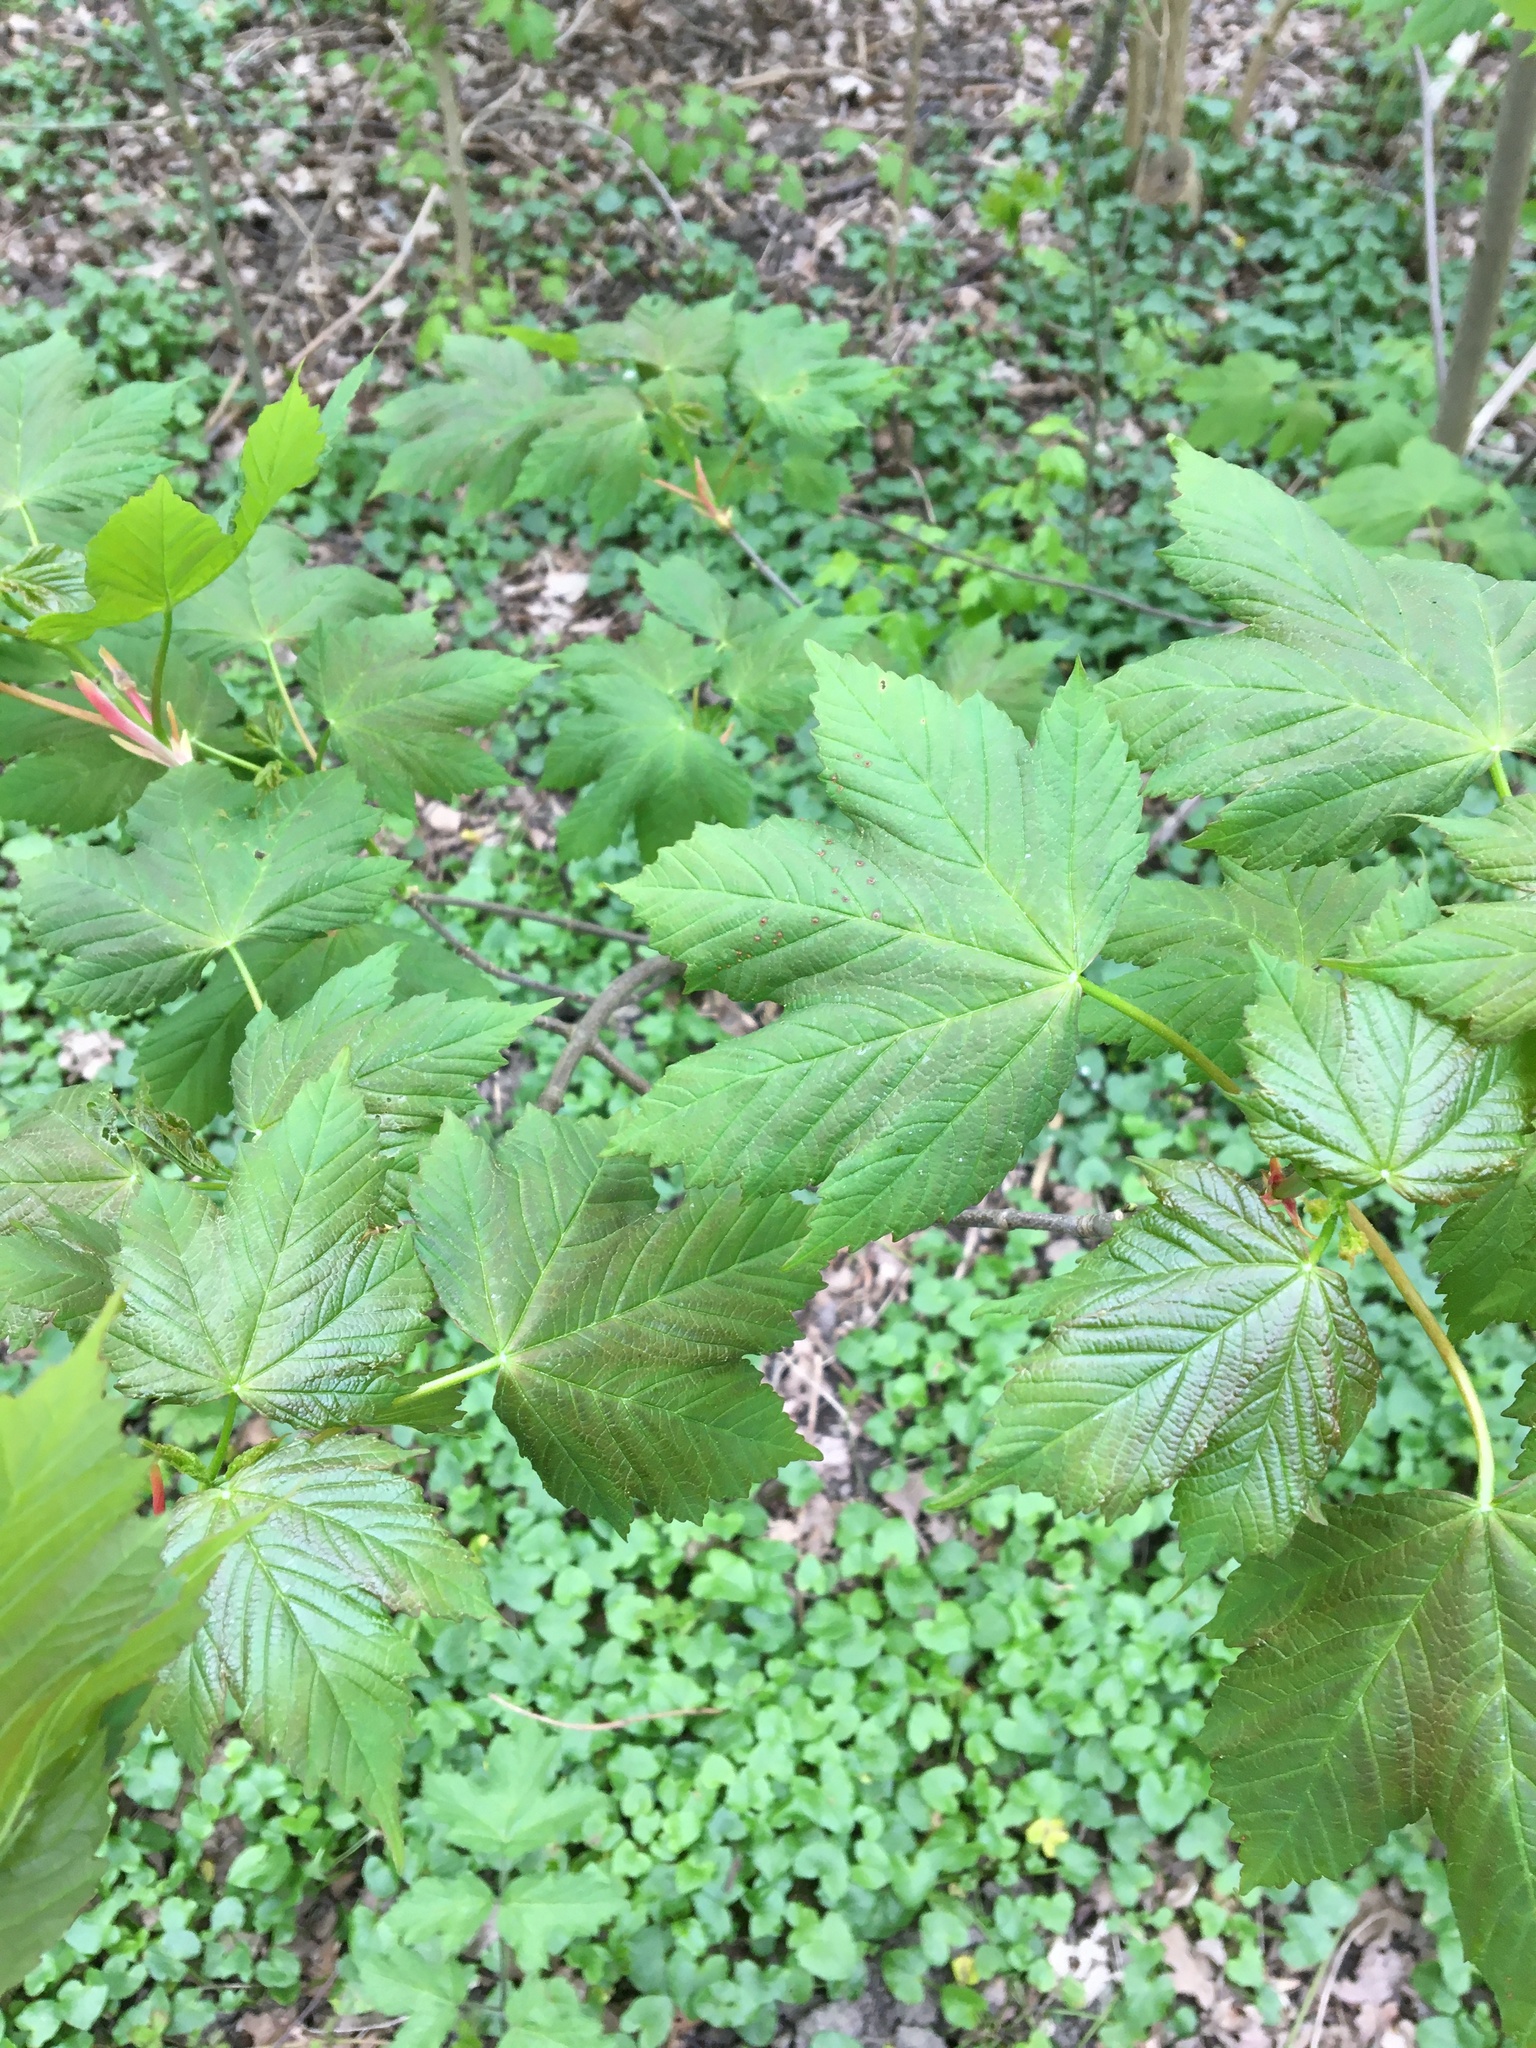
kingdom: Plantae
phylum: Tracheophyta
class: Magnoliopsida
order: Sapindales
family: Sapindaceae
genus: Acer
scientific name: Acer pseudoplatanus
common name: Sycamore
